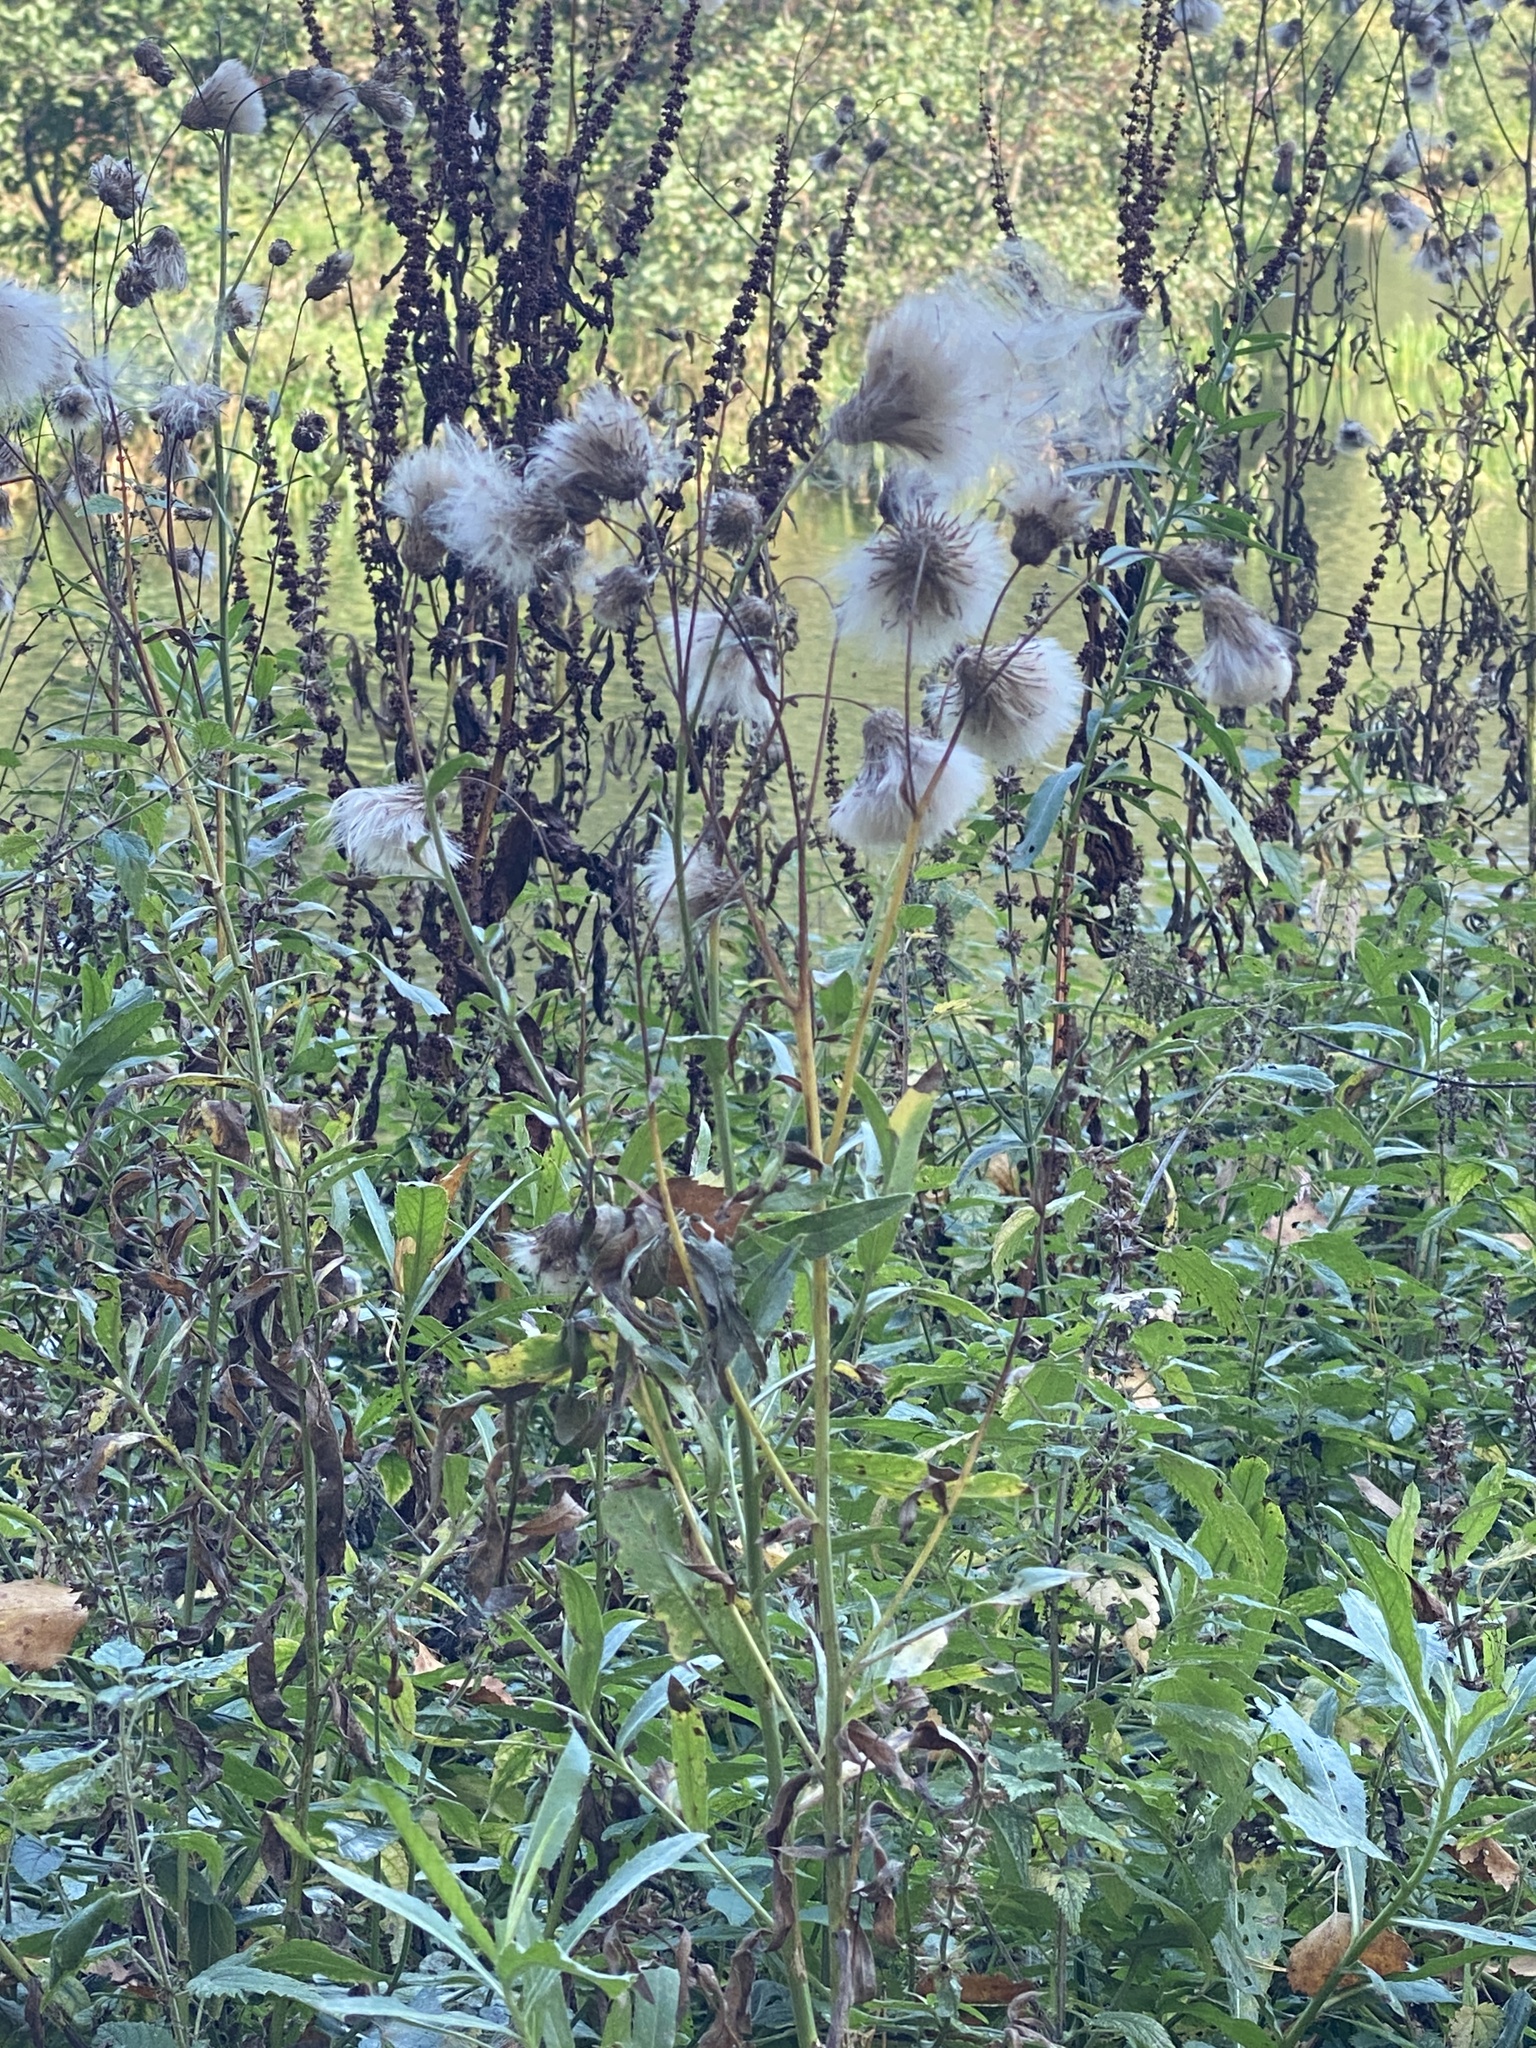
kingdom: Plantae
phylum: Tracheophyta
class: Magnoliopsida
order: Asterales
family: Asteraceae
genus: Cirsium
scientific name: Cirsium arvense
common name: Creeping thistle
